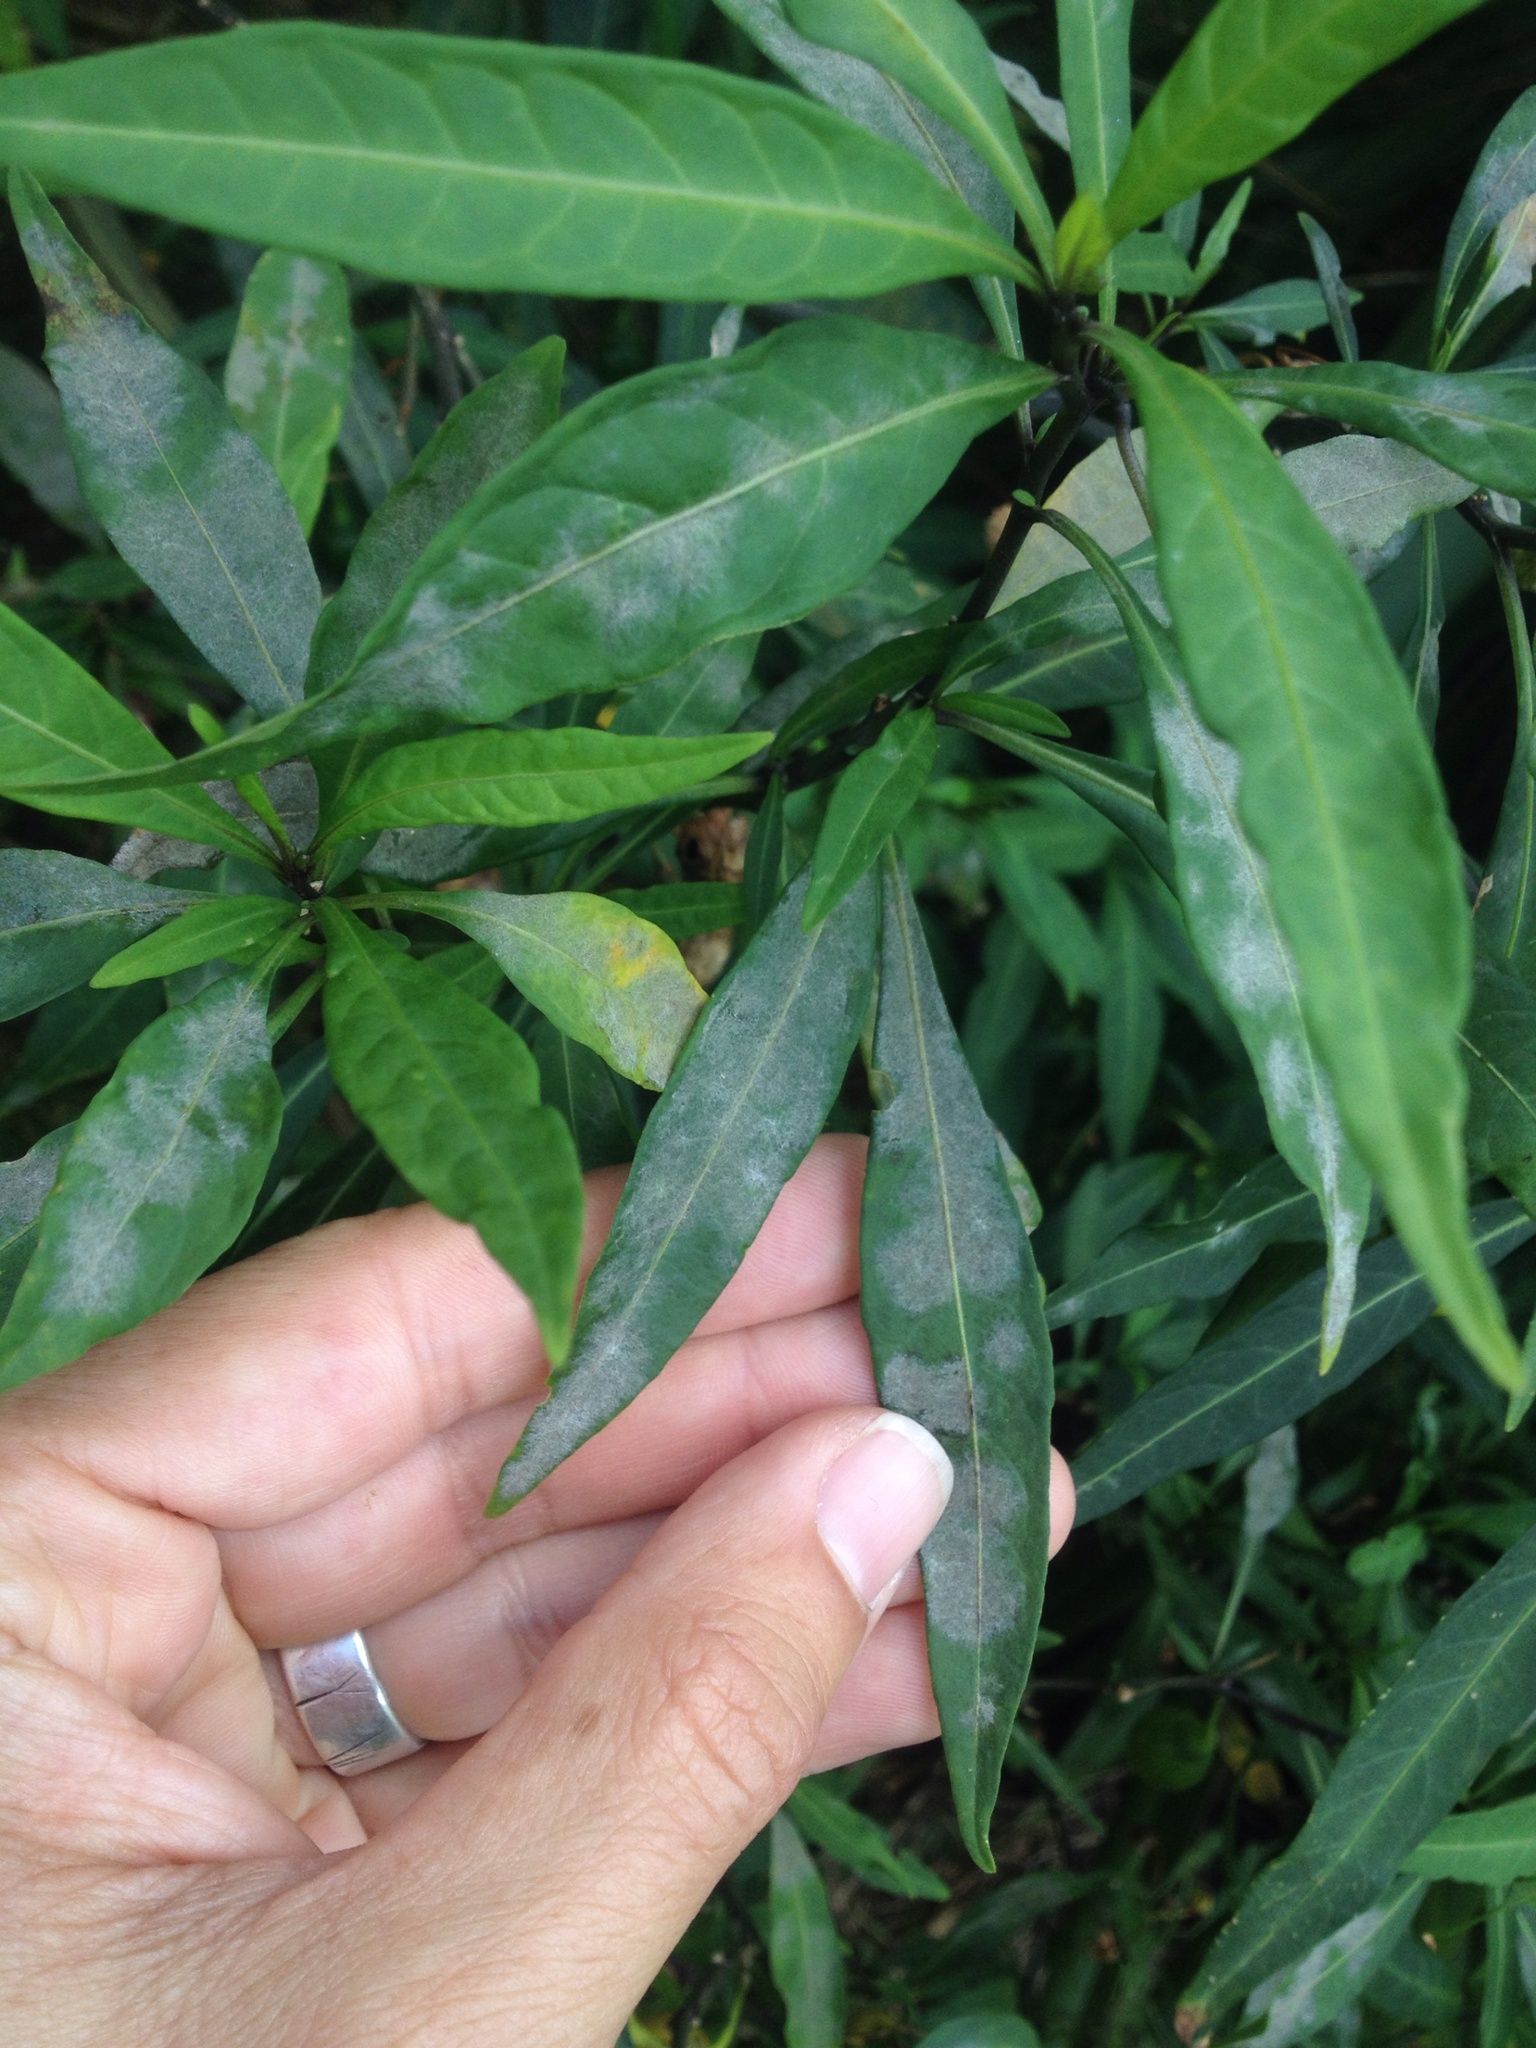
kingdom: Fungi
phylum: Ascomycota
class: Leotiomycetes
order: Helotiales
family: Erysiphaceae
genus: Golovinomyces
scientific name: Golovinomyces longipes
